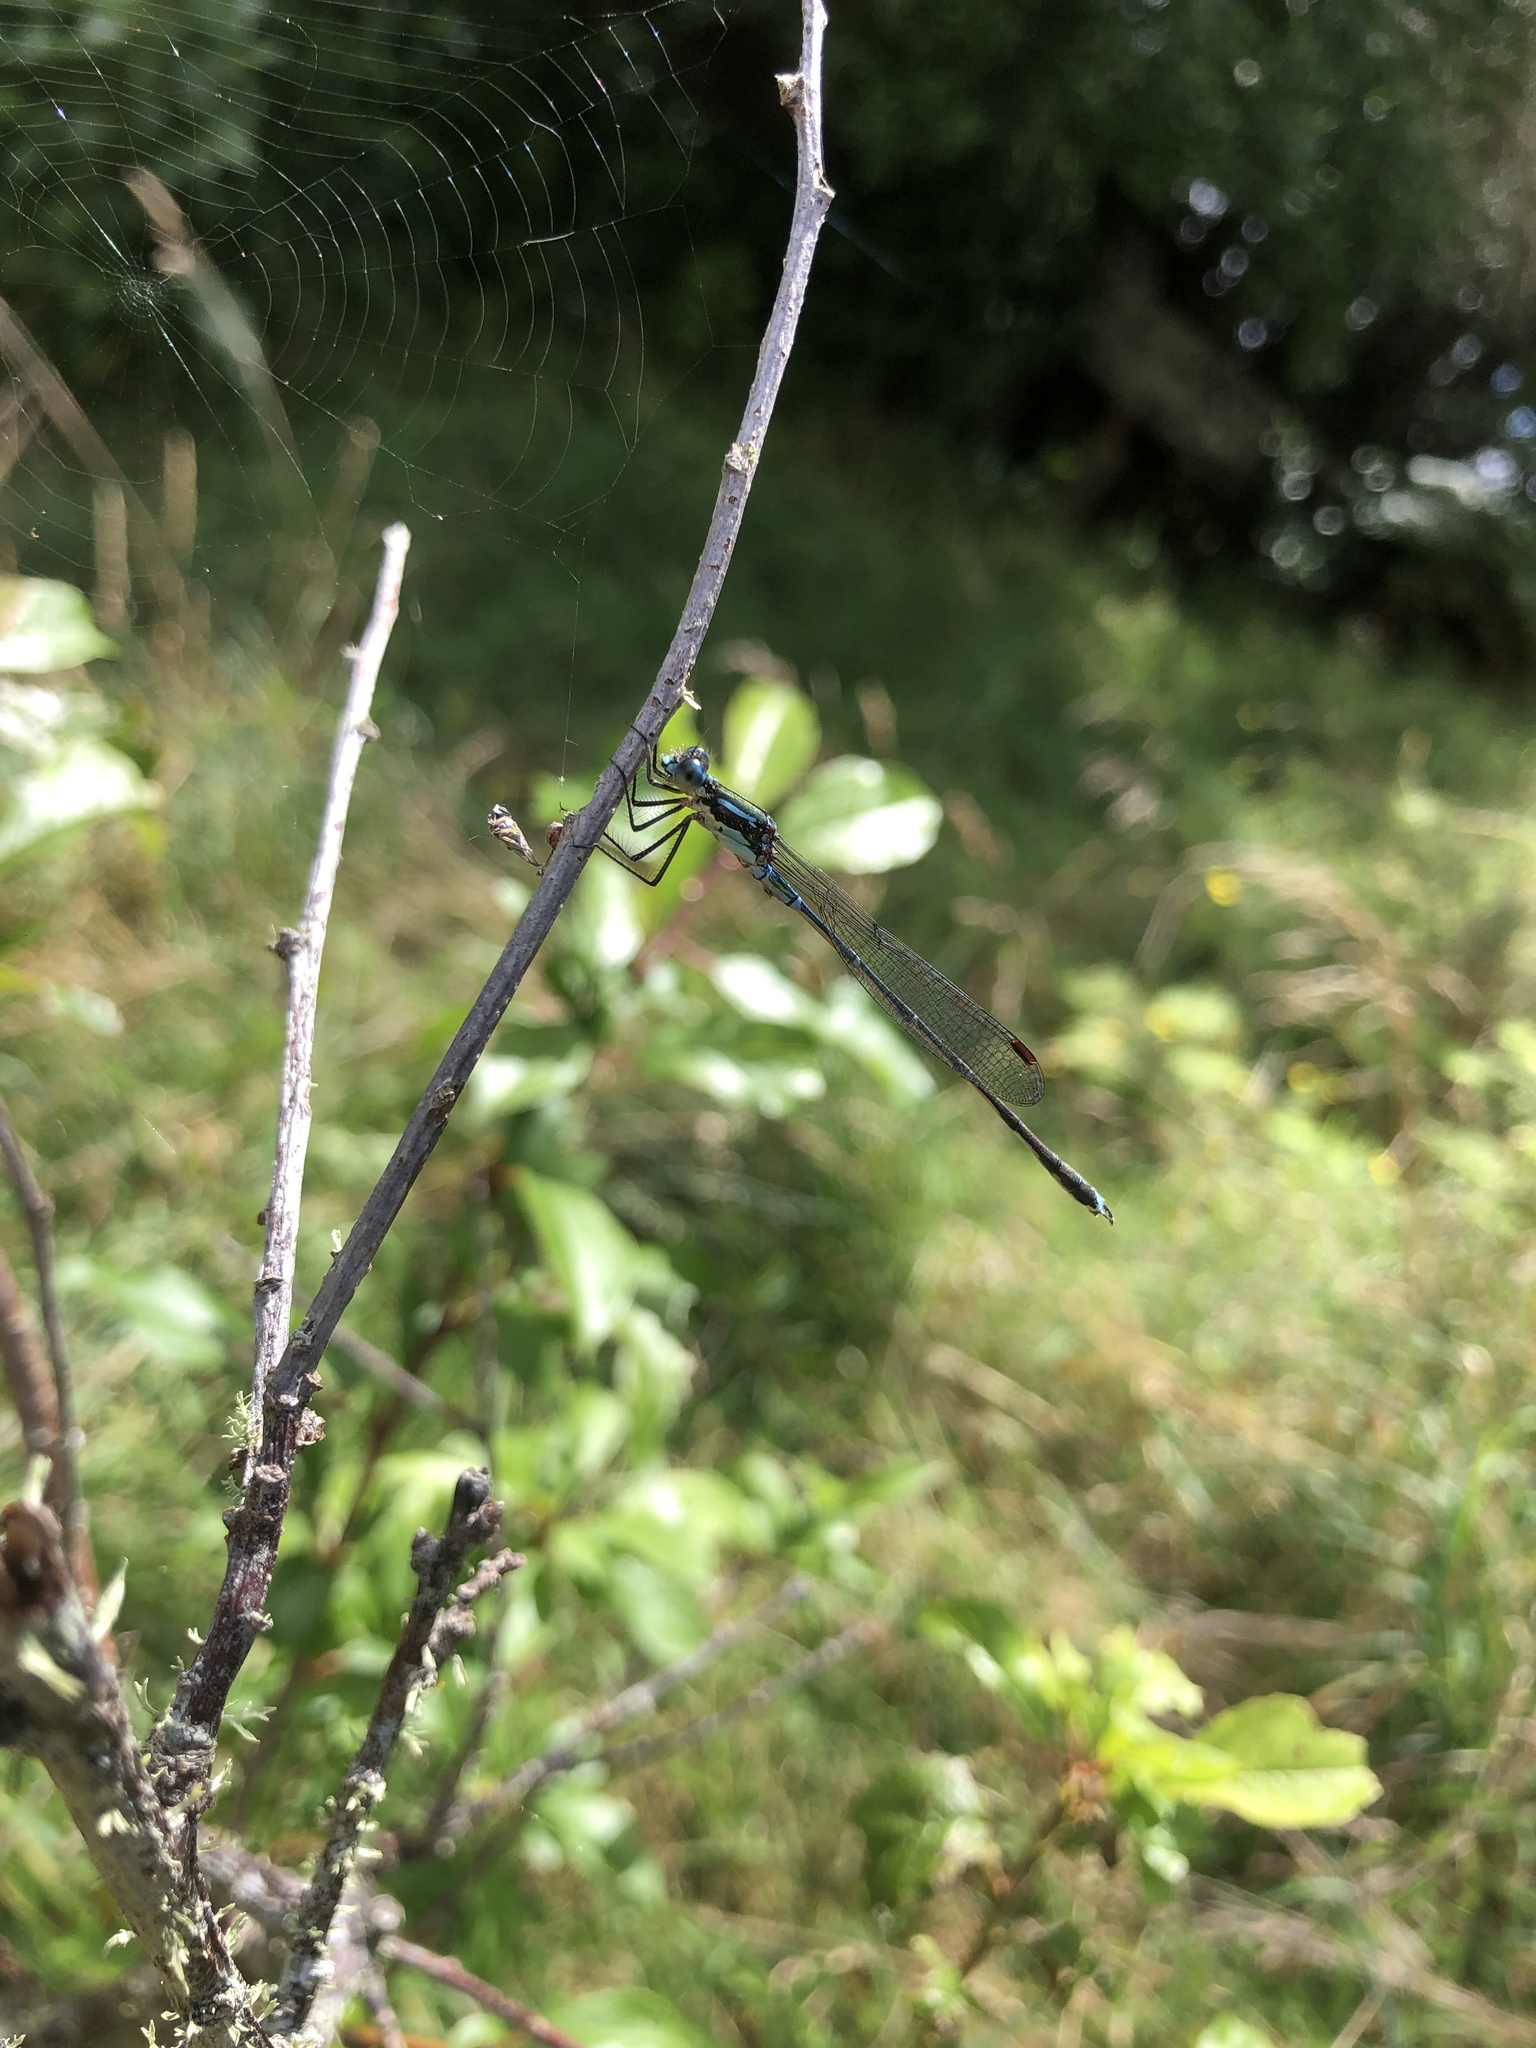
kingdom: Animalia
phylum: Arthropoda
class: Insecta
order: Odonata
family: Lestidae
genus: Austrolestes
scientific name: Austrolestes colensonis
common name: Blue damselfly
